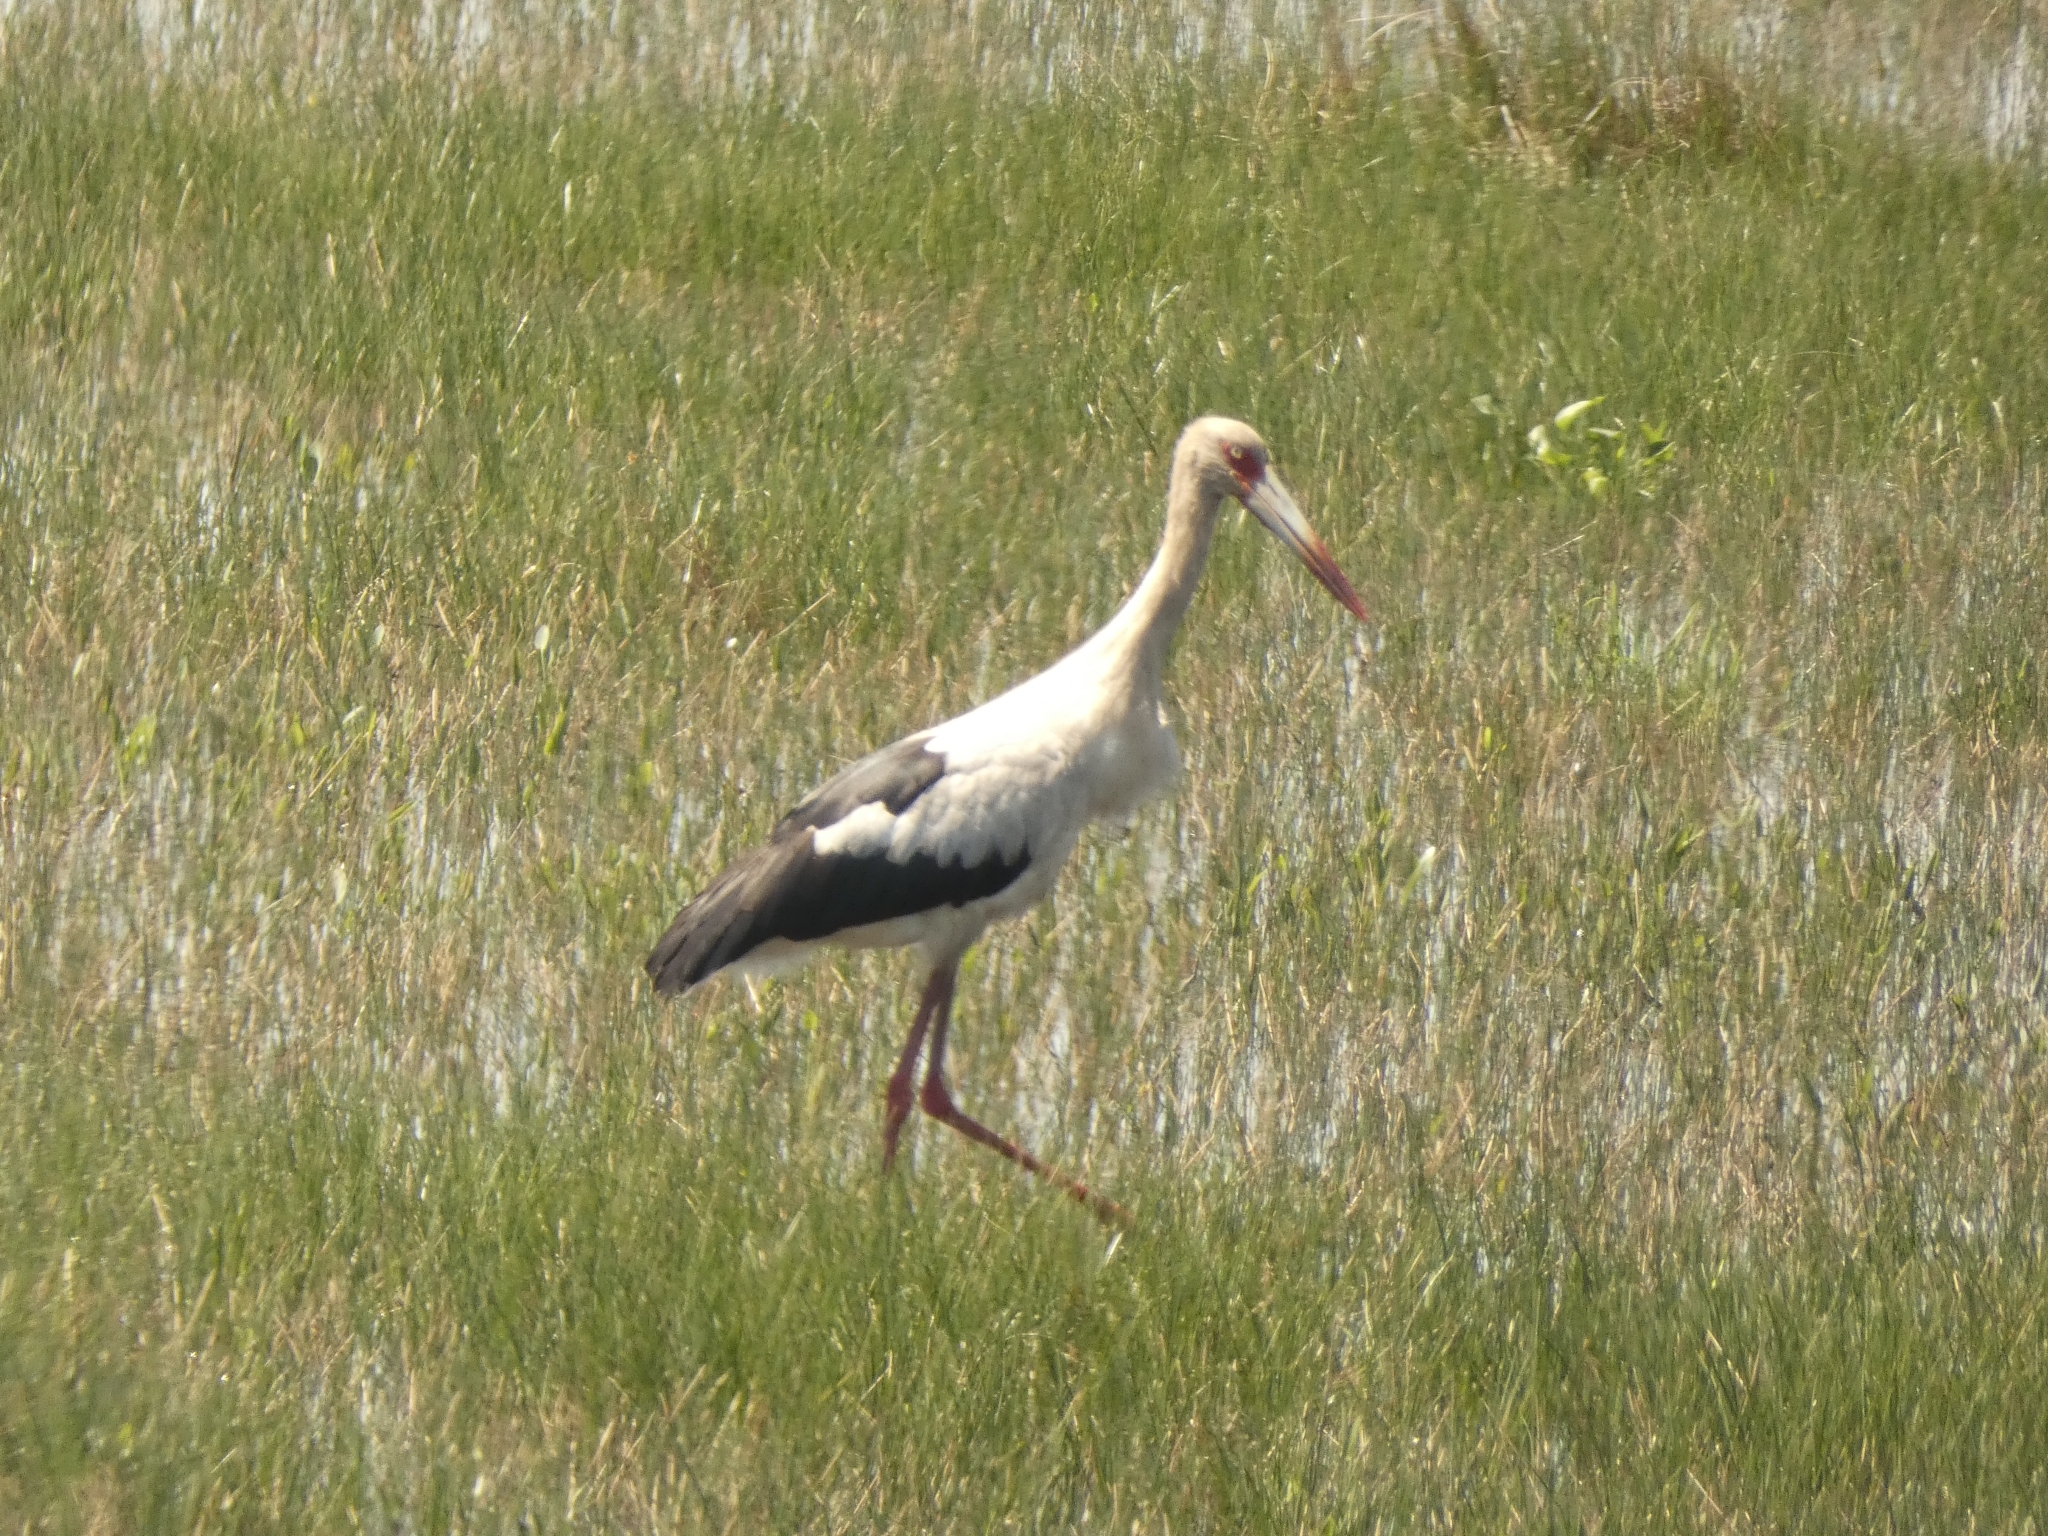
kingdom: Animalia
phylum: Chordata
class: Aves
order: Ciconiiformes
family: Ciconiidae
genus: Ciconia
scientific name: Ciconia maguari
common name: Maguari stork
